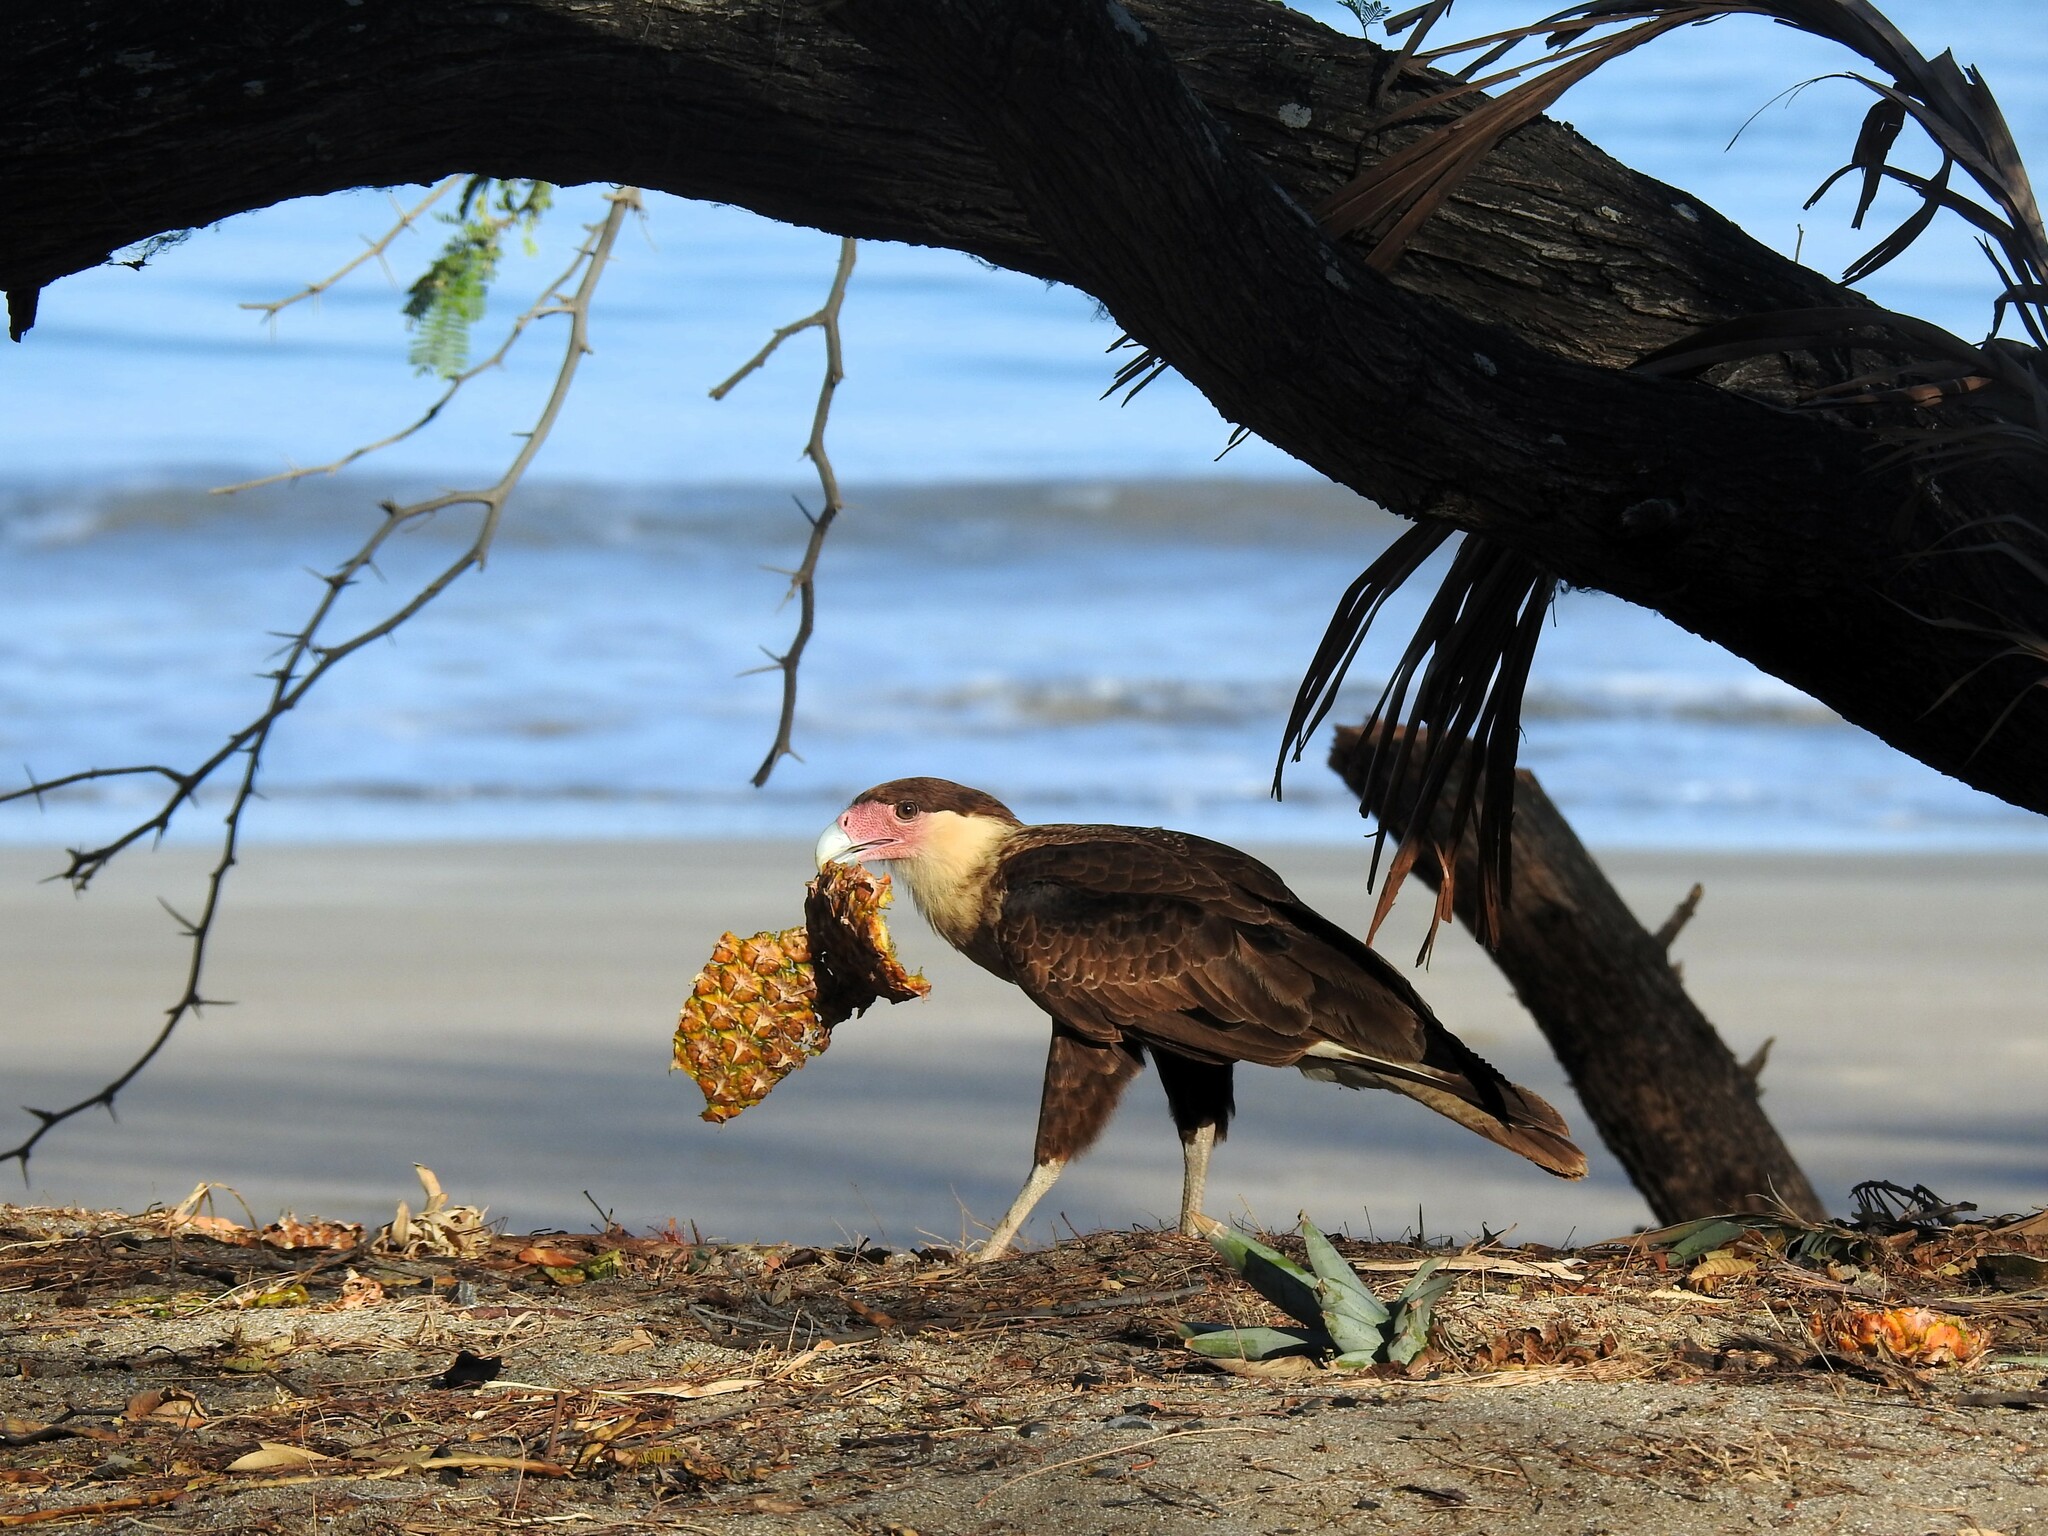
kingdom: Animalia
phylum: Chordata
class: Aves
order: Falconiformes
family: Falconidae
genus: Caracara
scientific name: Caracara plancus
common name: Southern caracara
